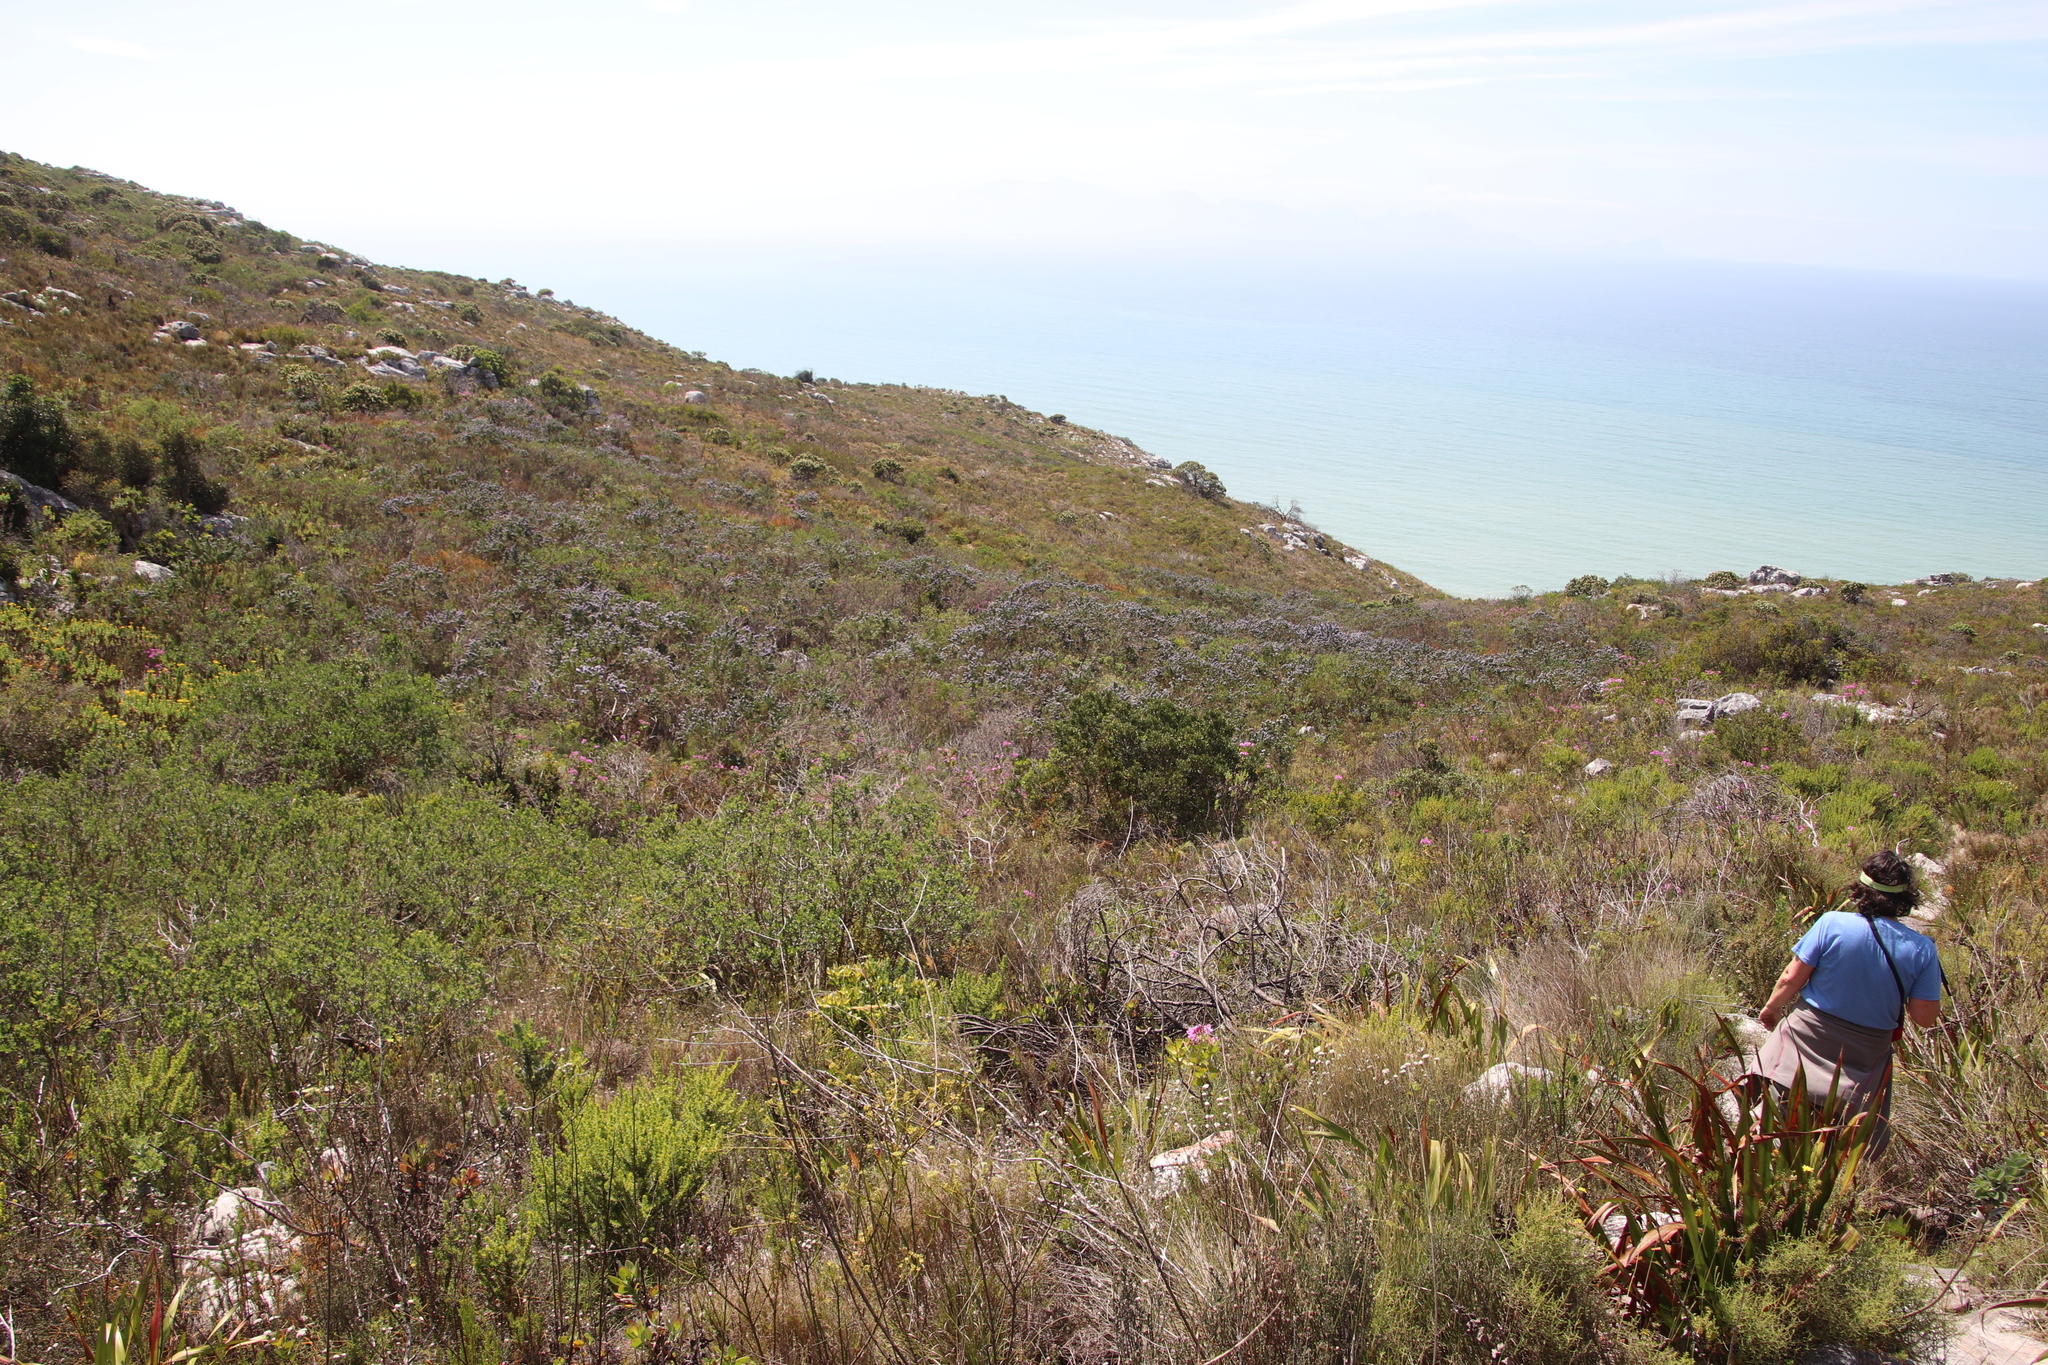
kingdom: Plantae
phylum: Tracheophyta
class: Magnoliopsida
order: Fabales
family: Fabaceae
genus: Psoralea
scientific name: Psoralea pinnata
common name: African scurfpea
